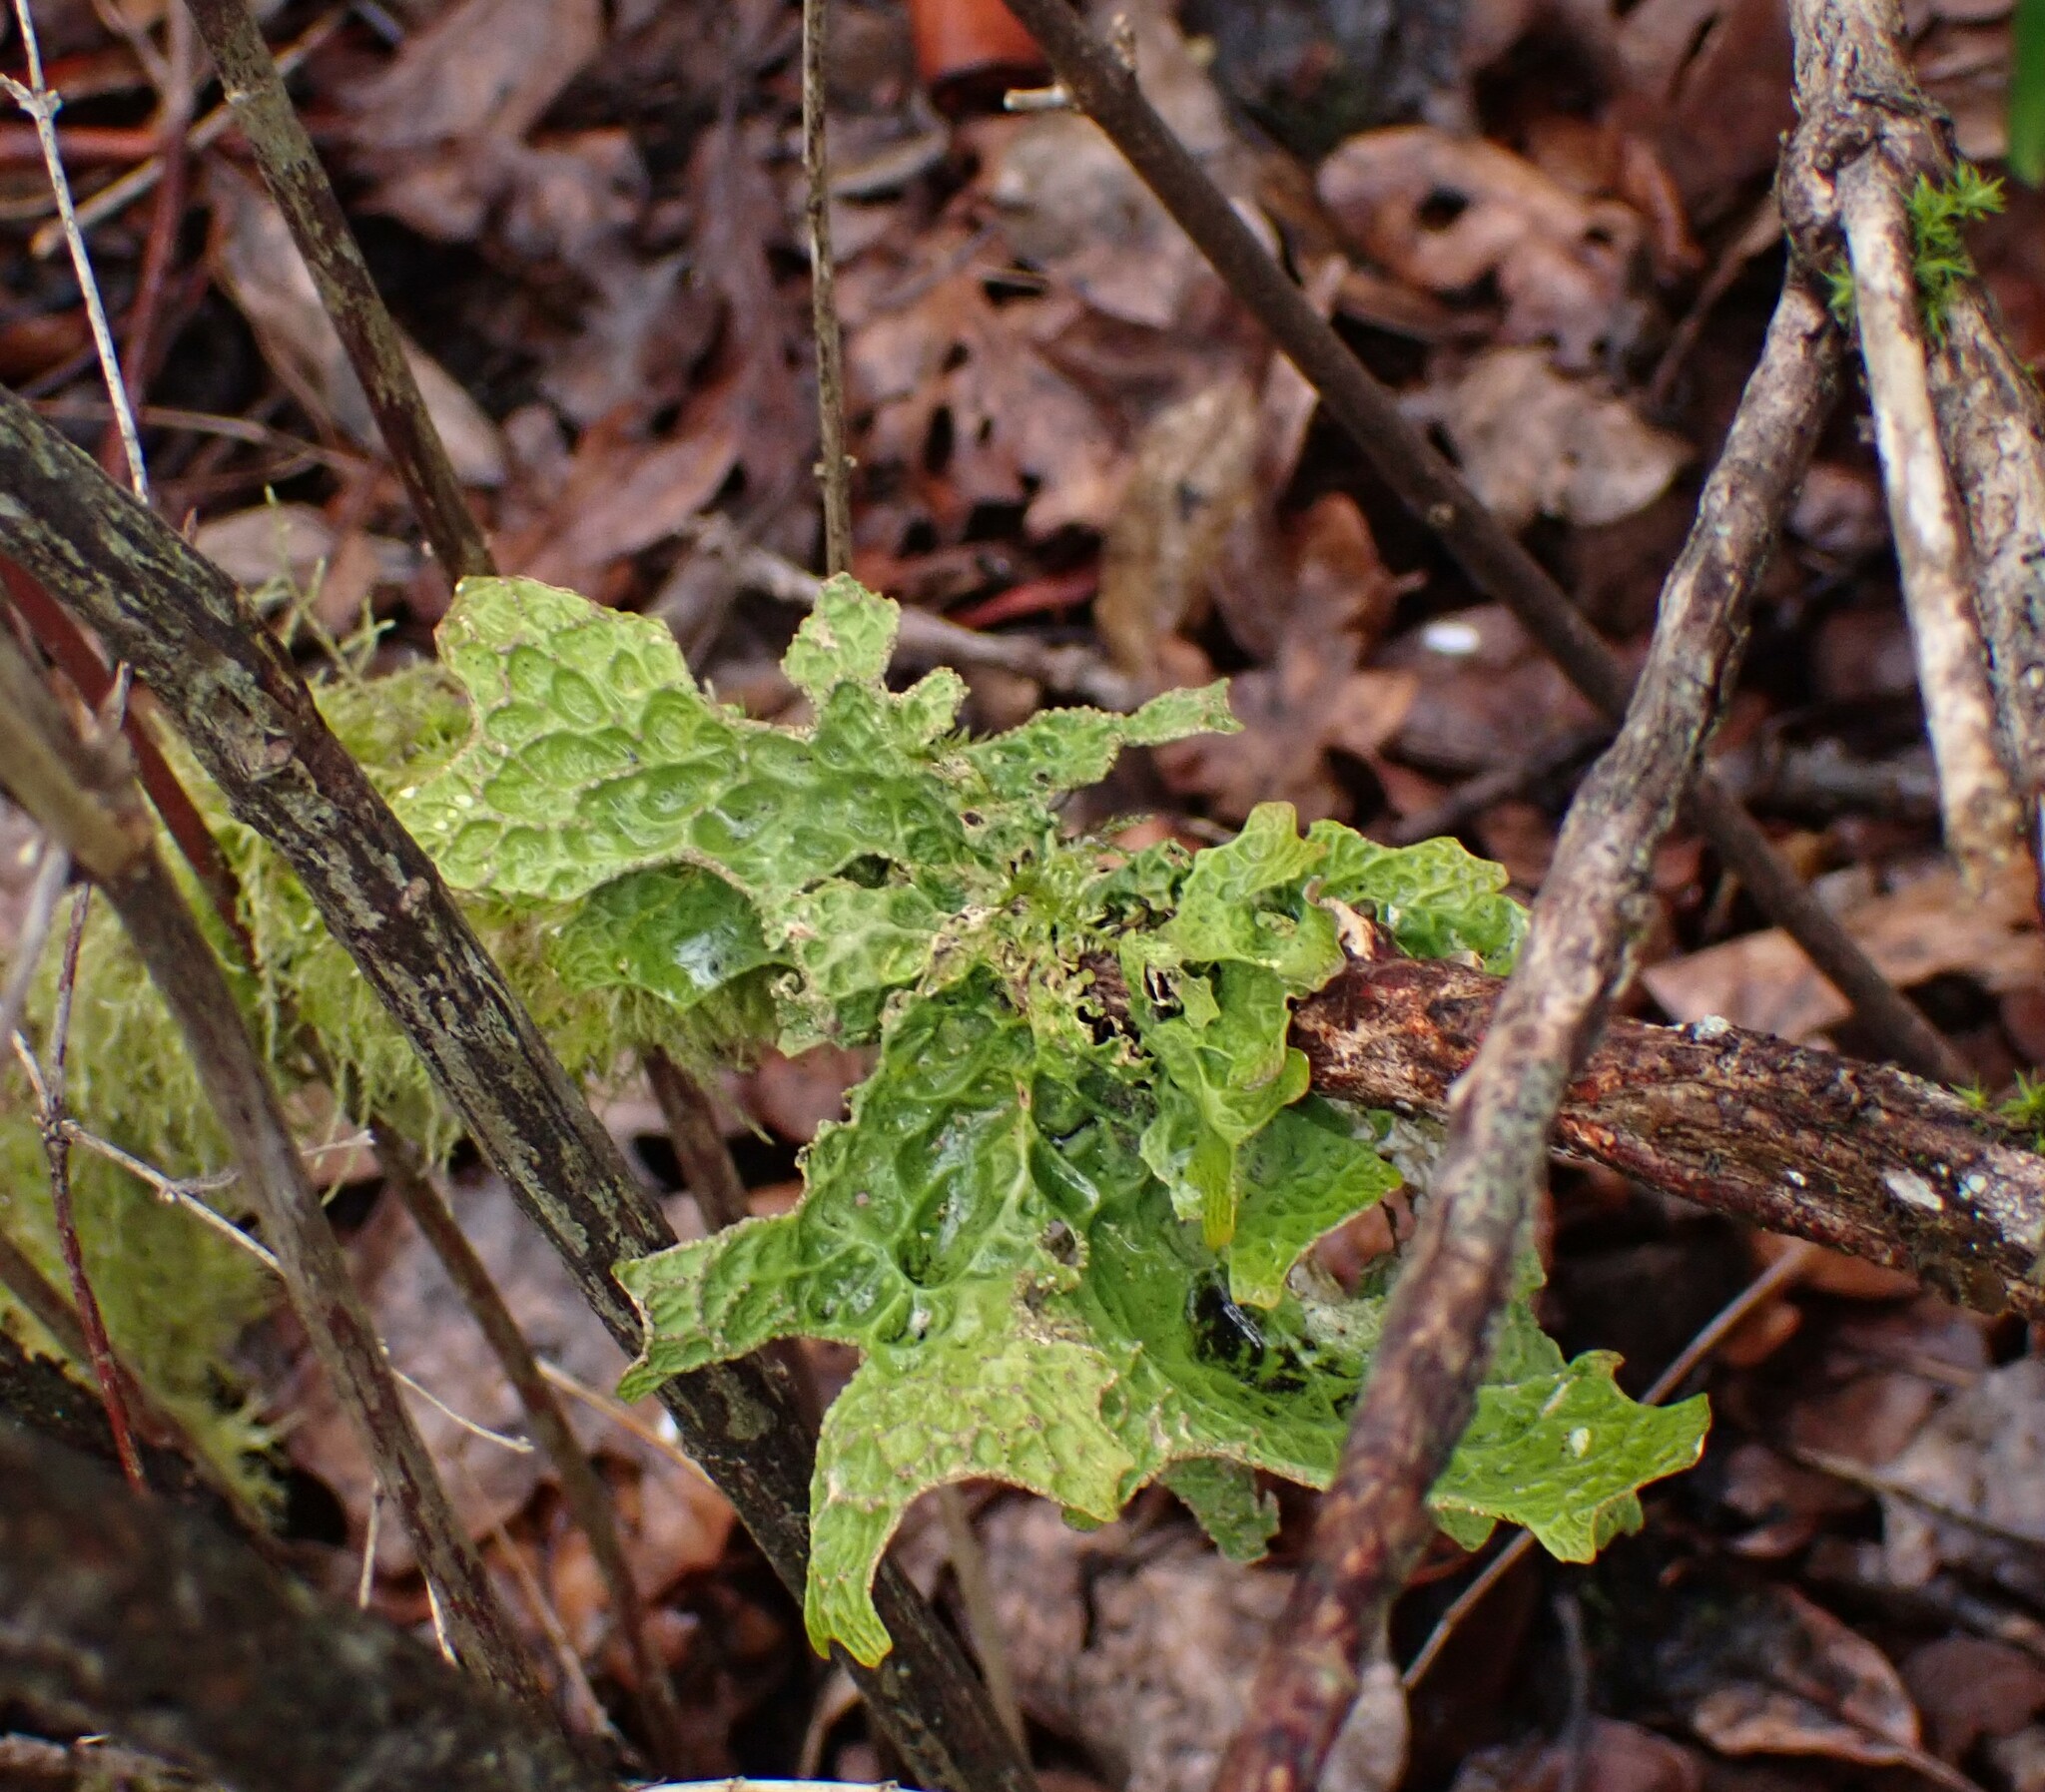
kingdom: Fungi
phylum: Ascomycota
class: Lecanoromycetes
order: Peltigerales
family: Lobariaceae
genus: Lobaria
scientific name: Lobaria pulmonaria
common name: Lungwort
